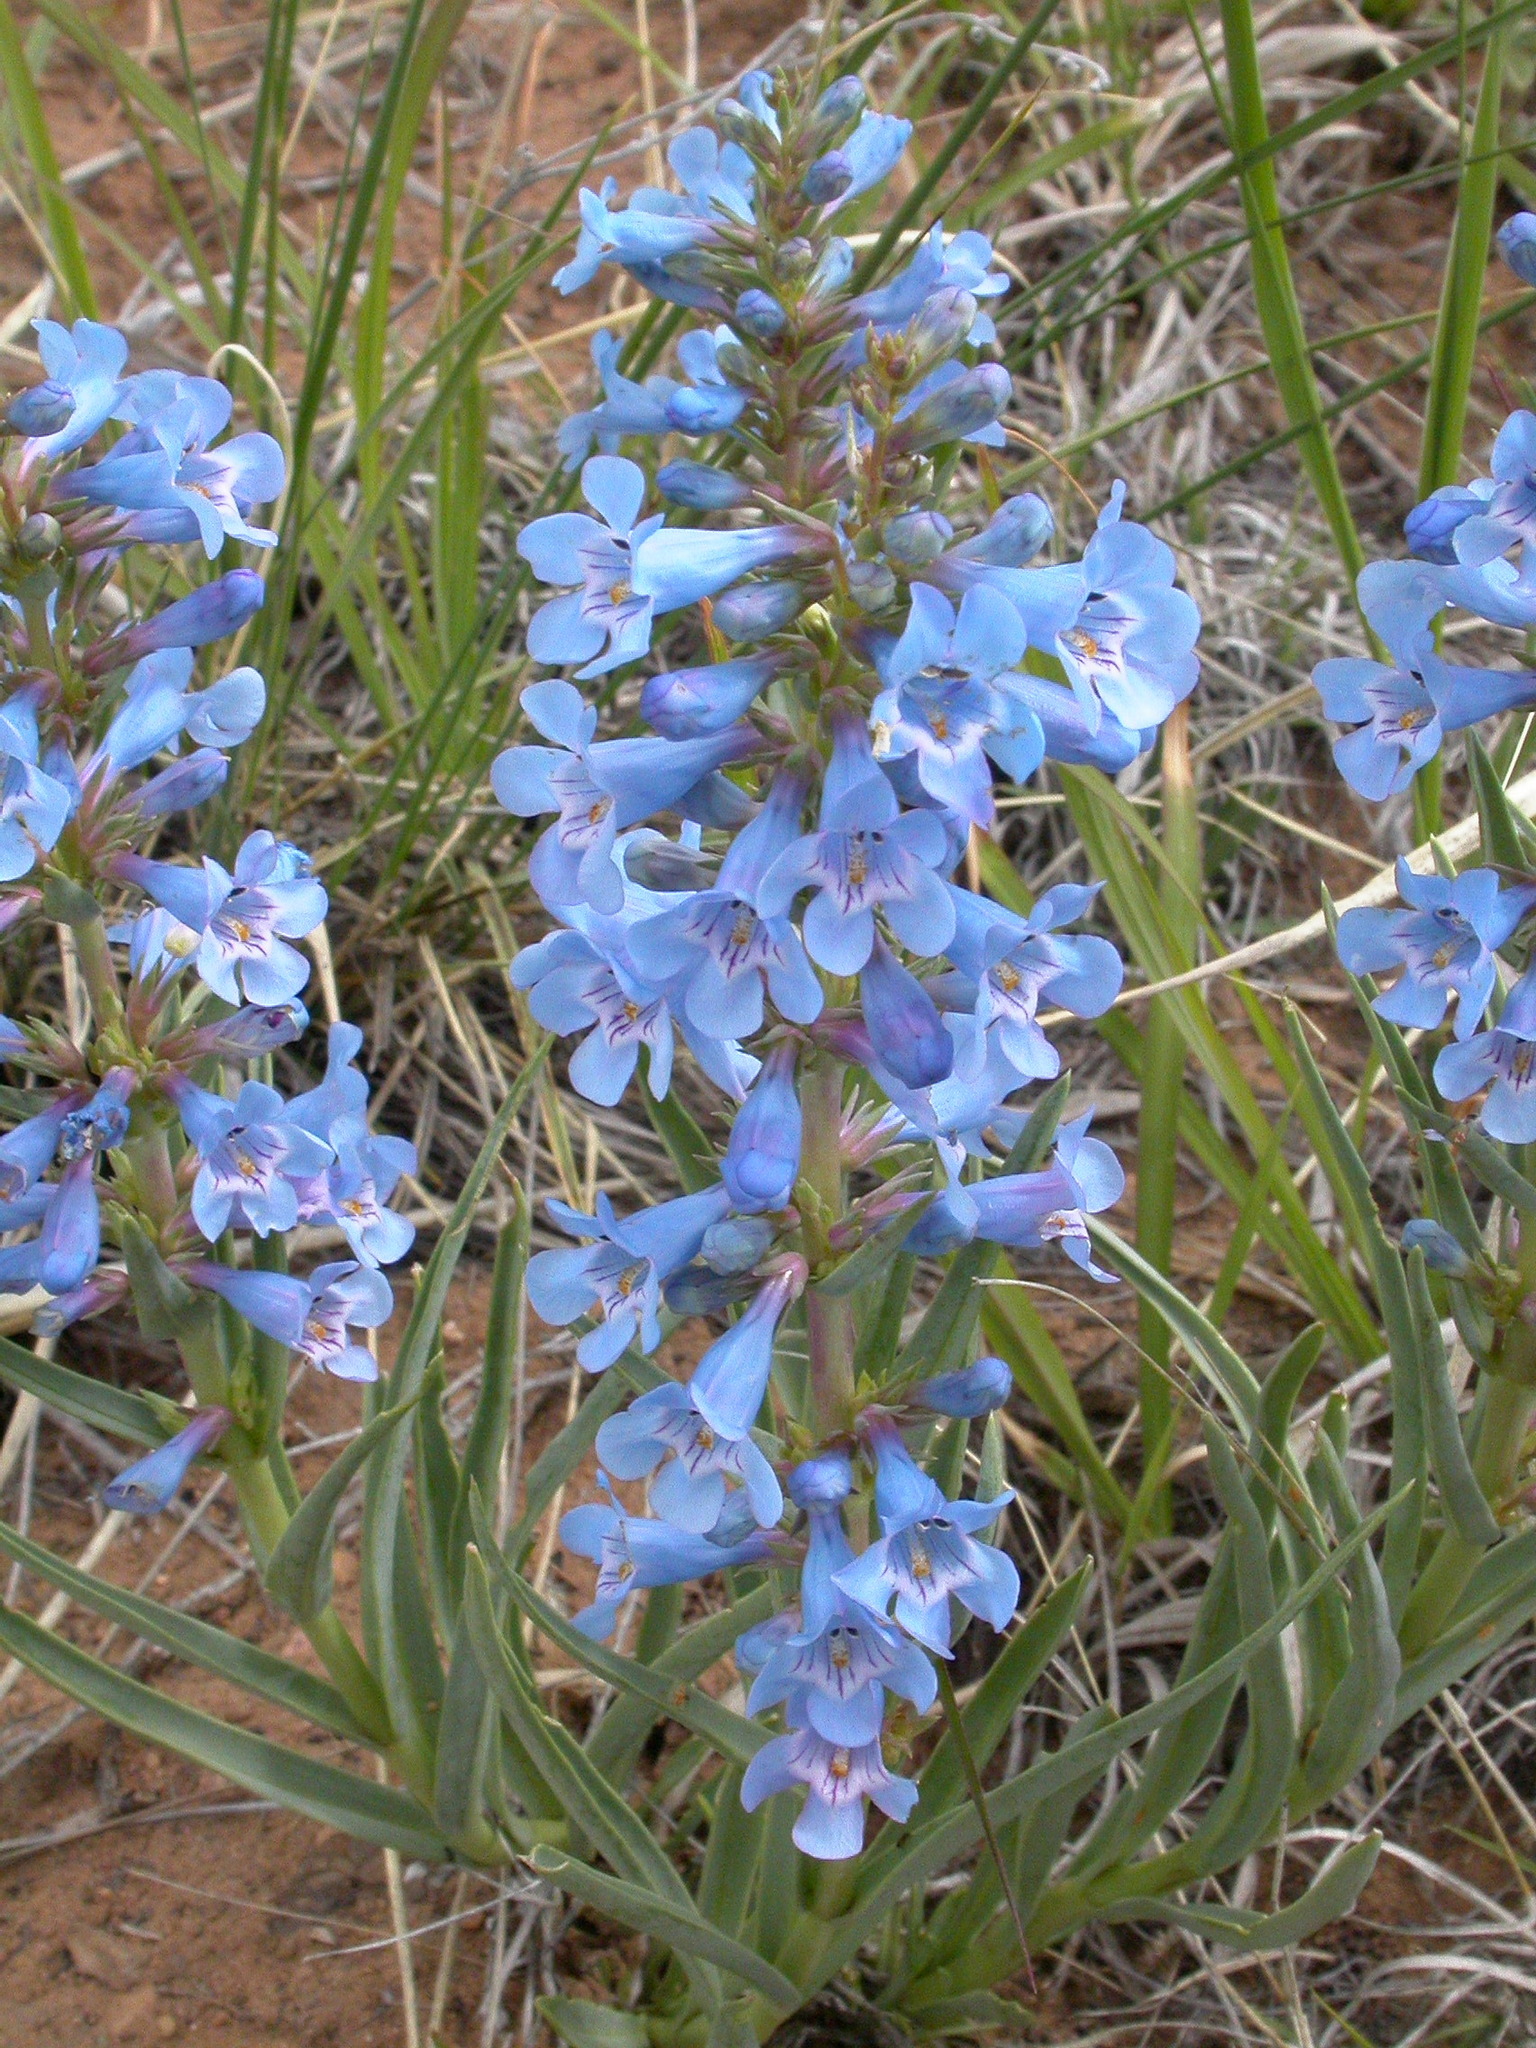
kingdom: Plantae
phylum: Tracheophyta
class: Magnoliopsida
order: Lamiales
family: Plantaginaceae
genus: Penstemon
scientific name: Penstemon angustifolius
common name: Narrow beardtongue
